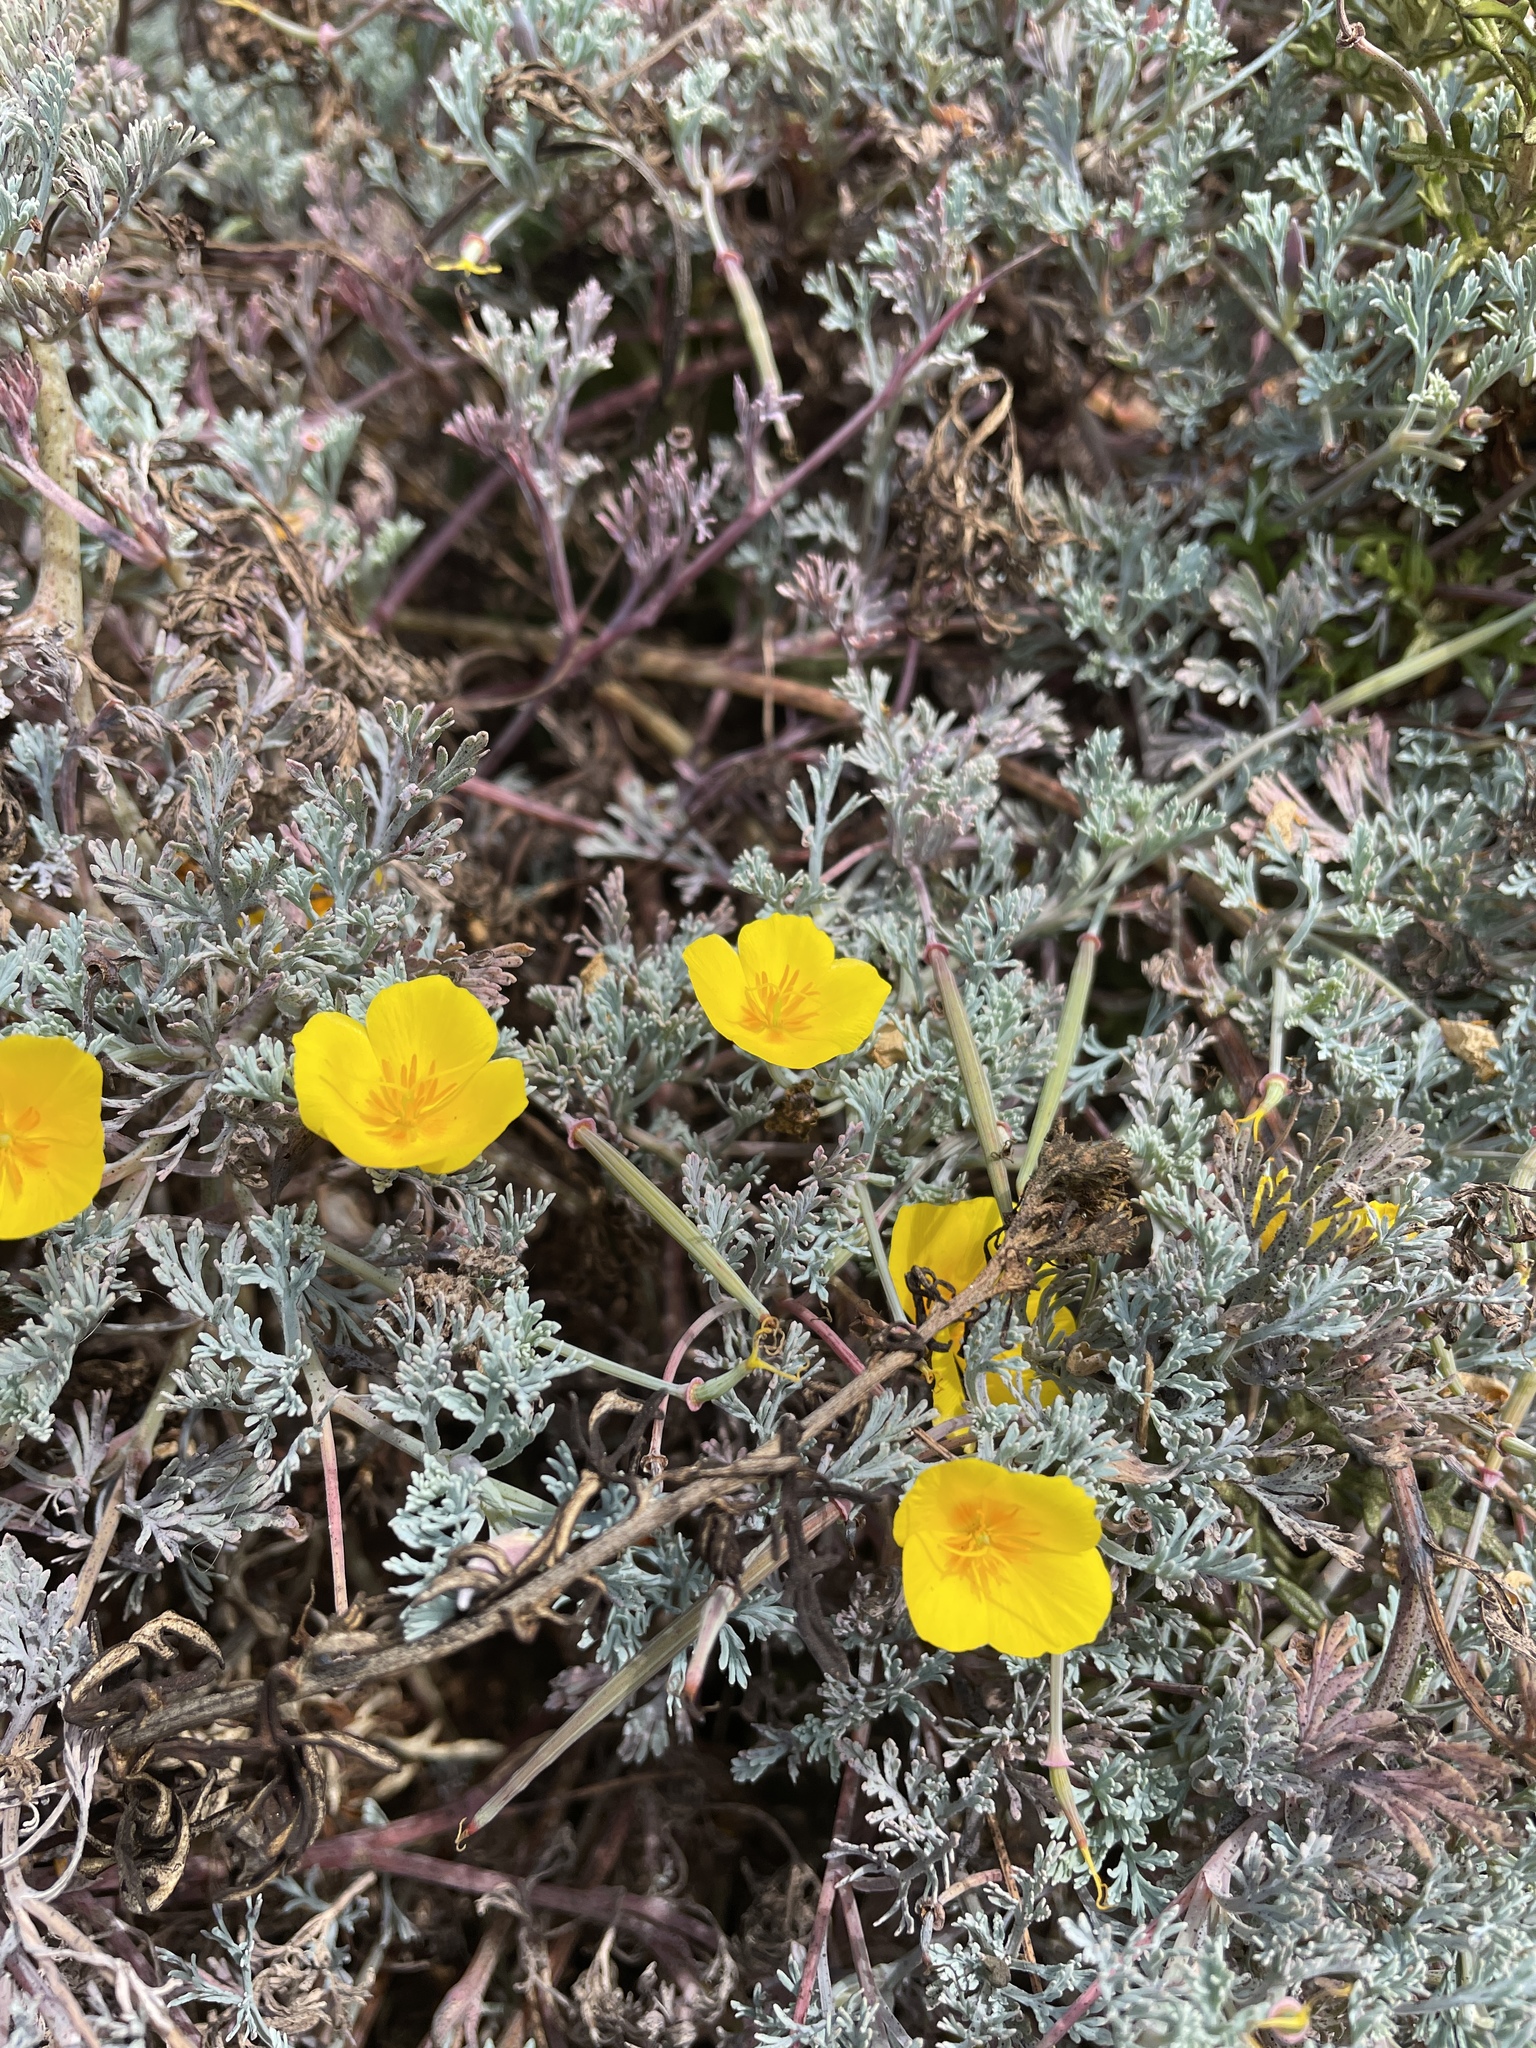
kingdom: Plantae
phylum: Tracheophyta
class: Magnoliopsida
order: Ranunculales
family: Papaveraceae
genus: Eschscholzia
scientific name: Eschscholzia californica
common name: California poppy
